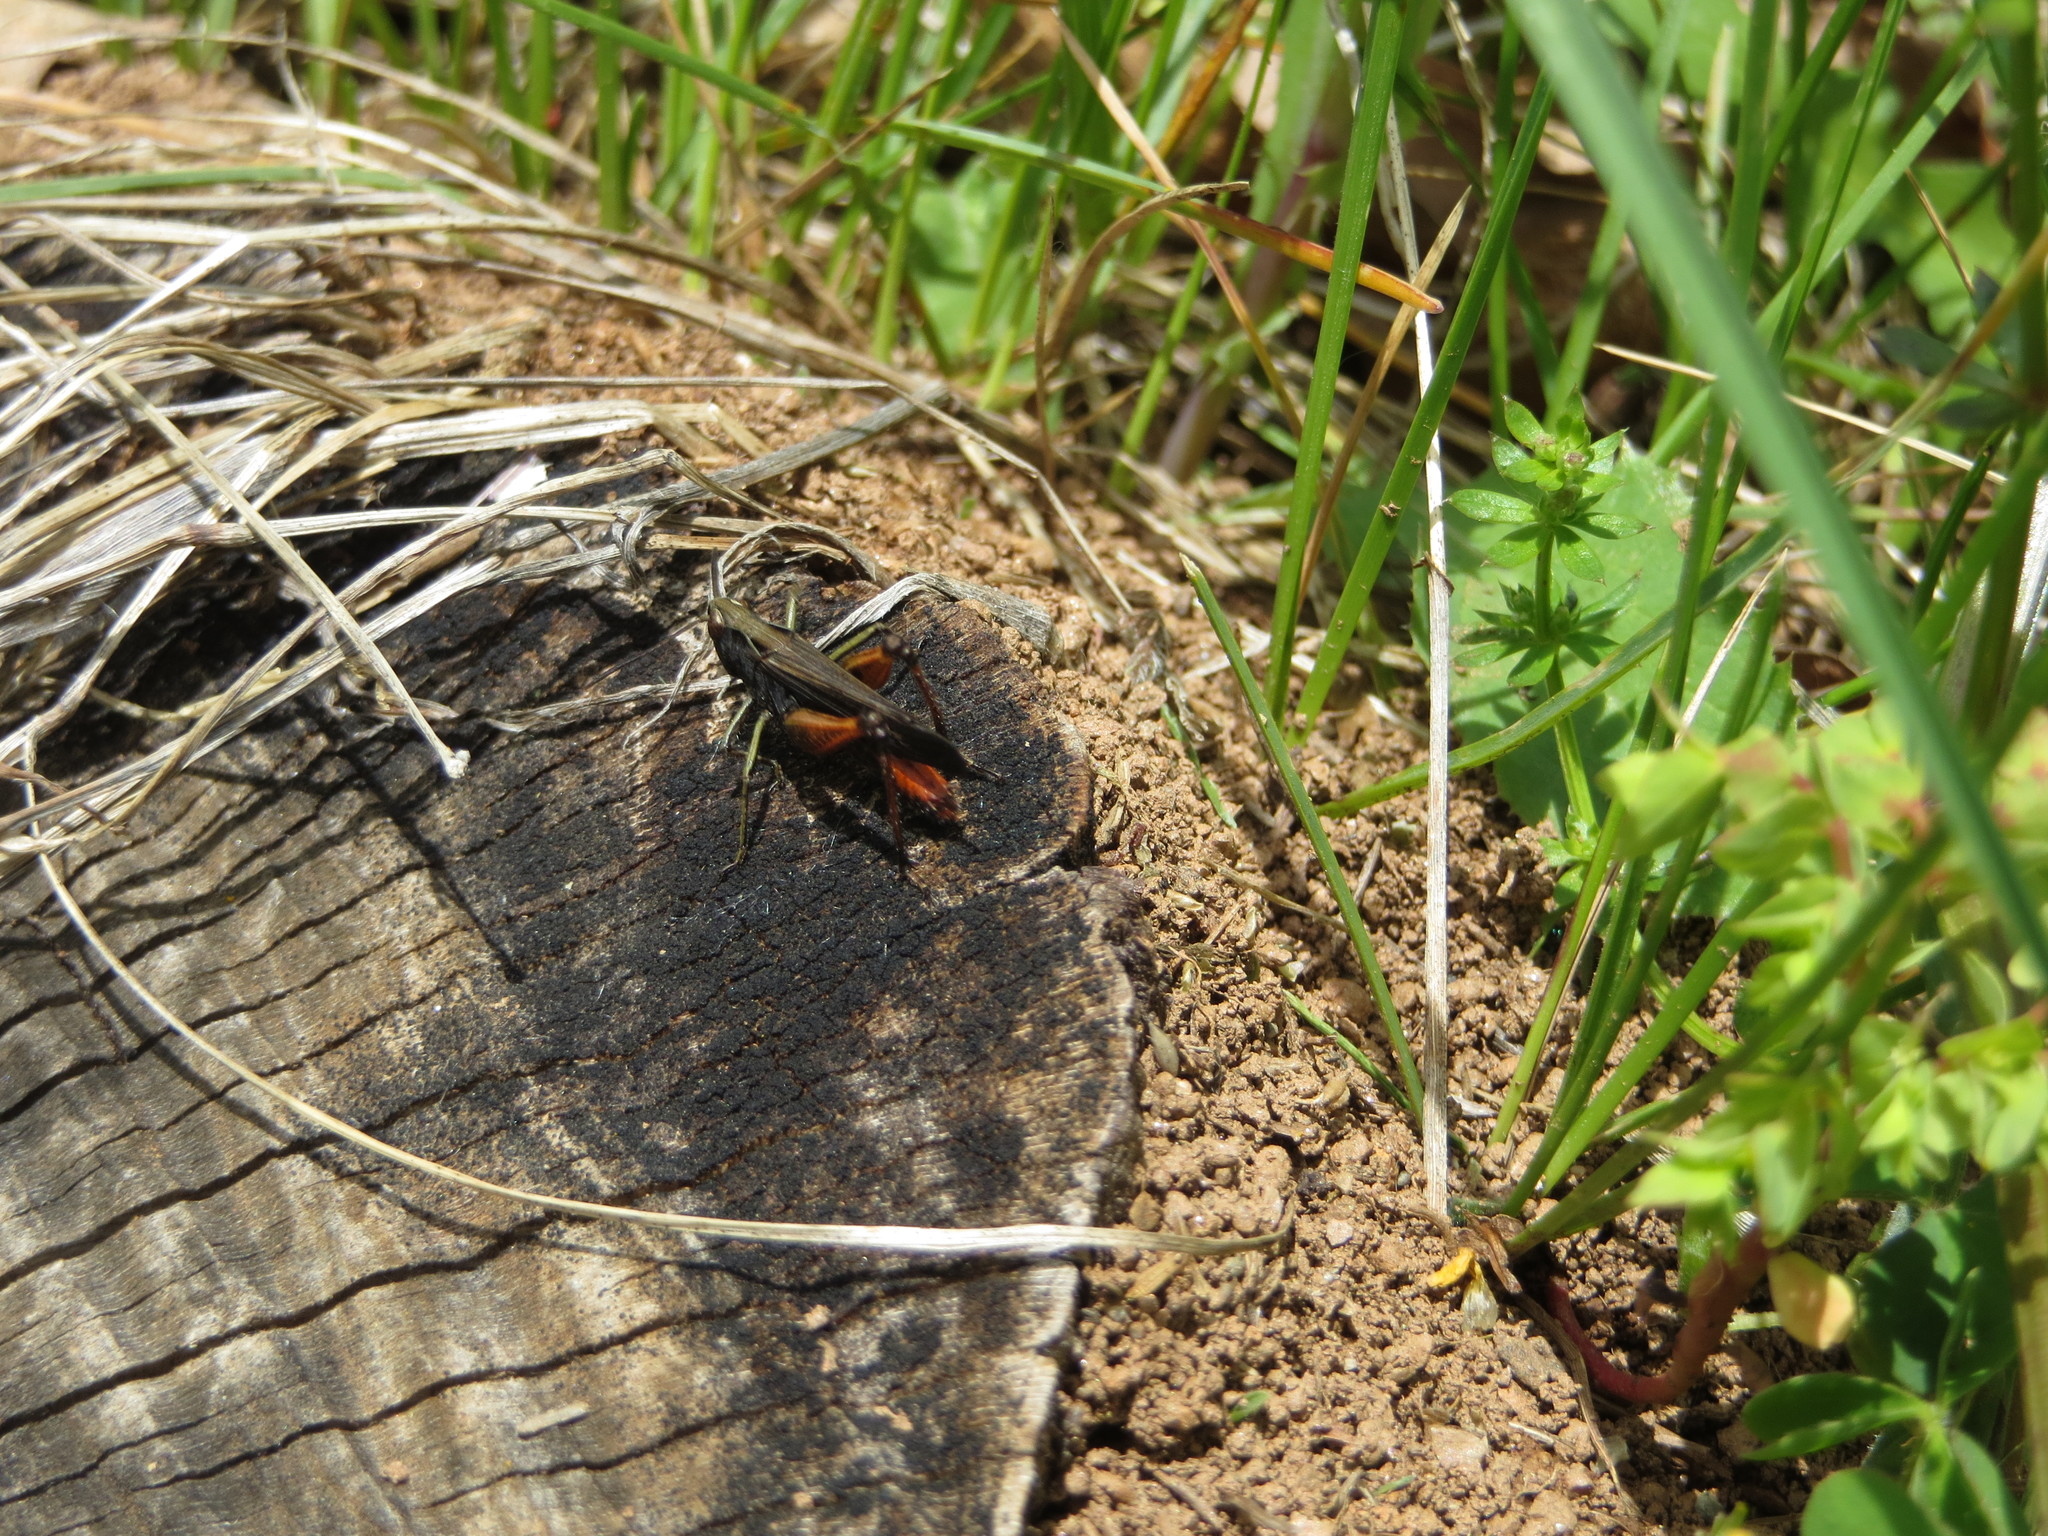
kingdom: Animalia
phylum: Arthropoda
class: Insecta
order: Orthoptera
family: Acrididae
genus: Omocestus
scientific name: Omocestus rufipes
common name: Woodland grasshopper
